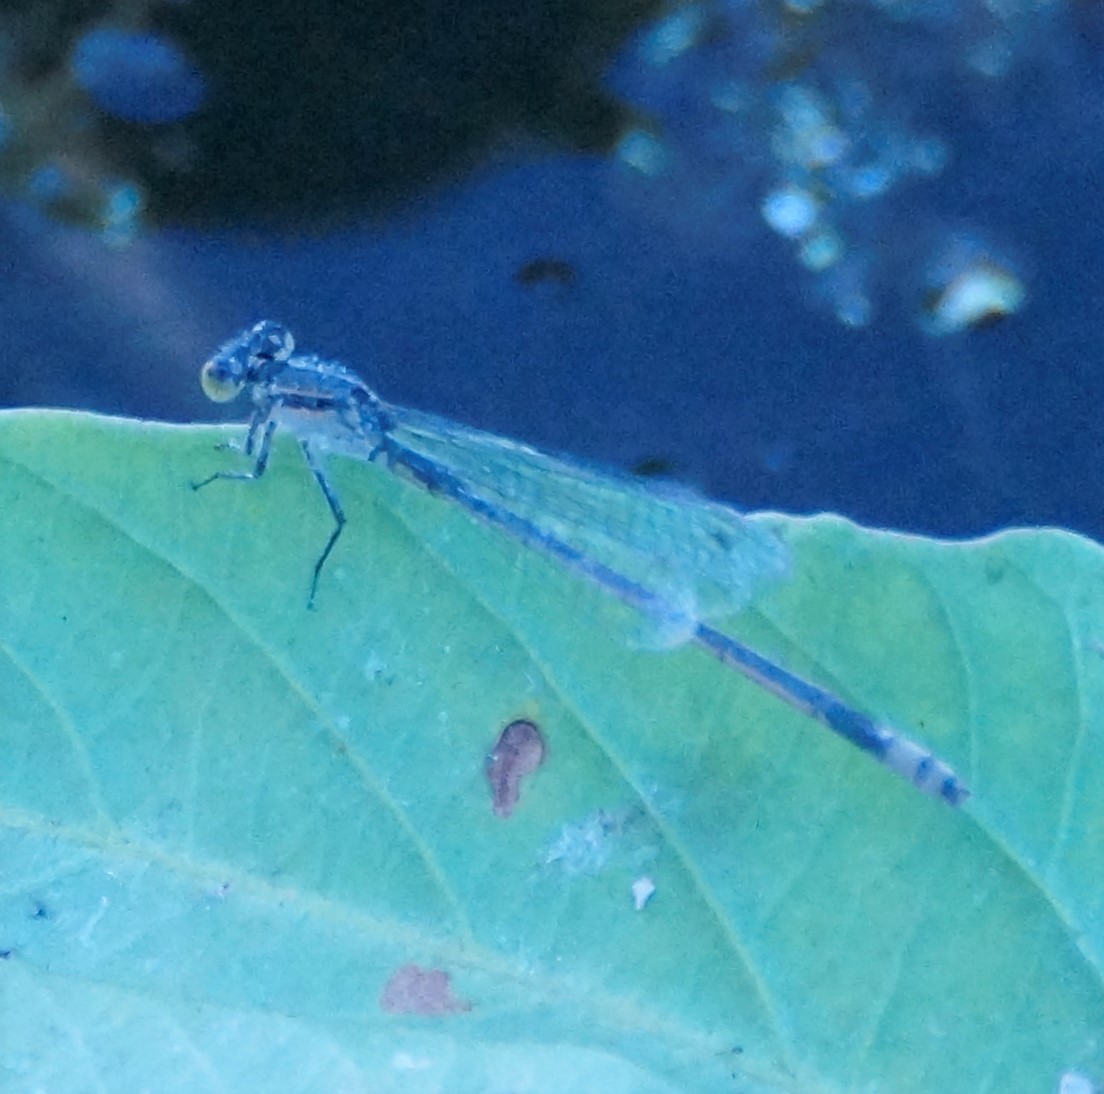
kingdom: Animalia
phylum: Arthropoda
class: Insecta
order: Odonata
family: Coenagrionidae
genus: Ischnura
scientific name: Ischnura heterosticta
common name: Common bluetail
